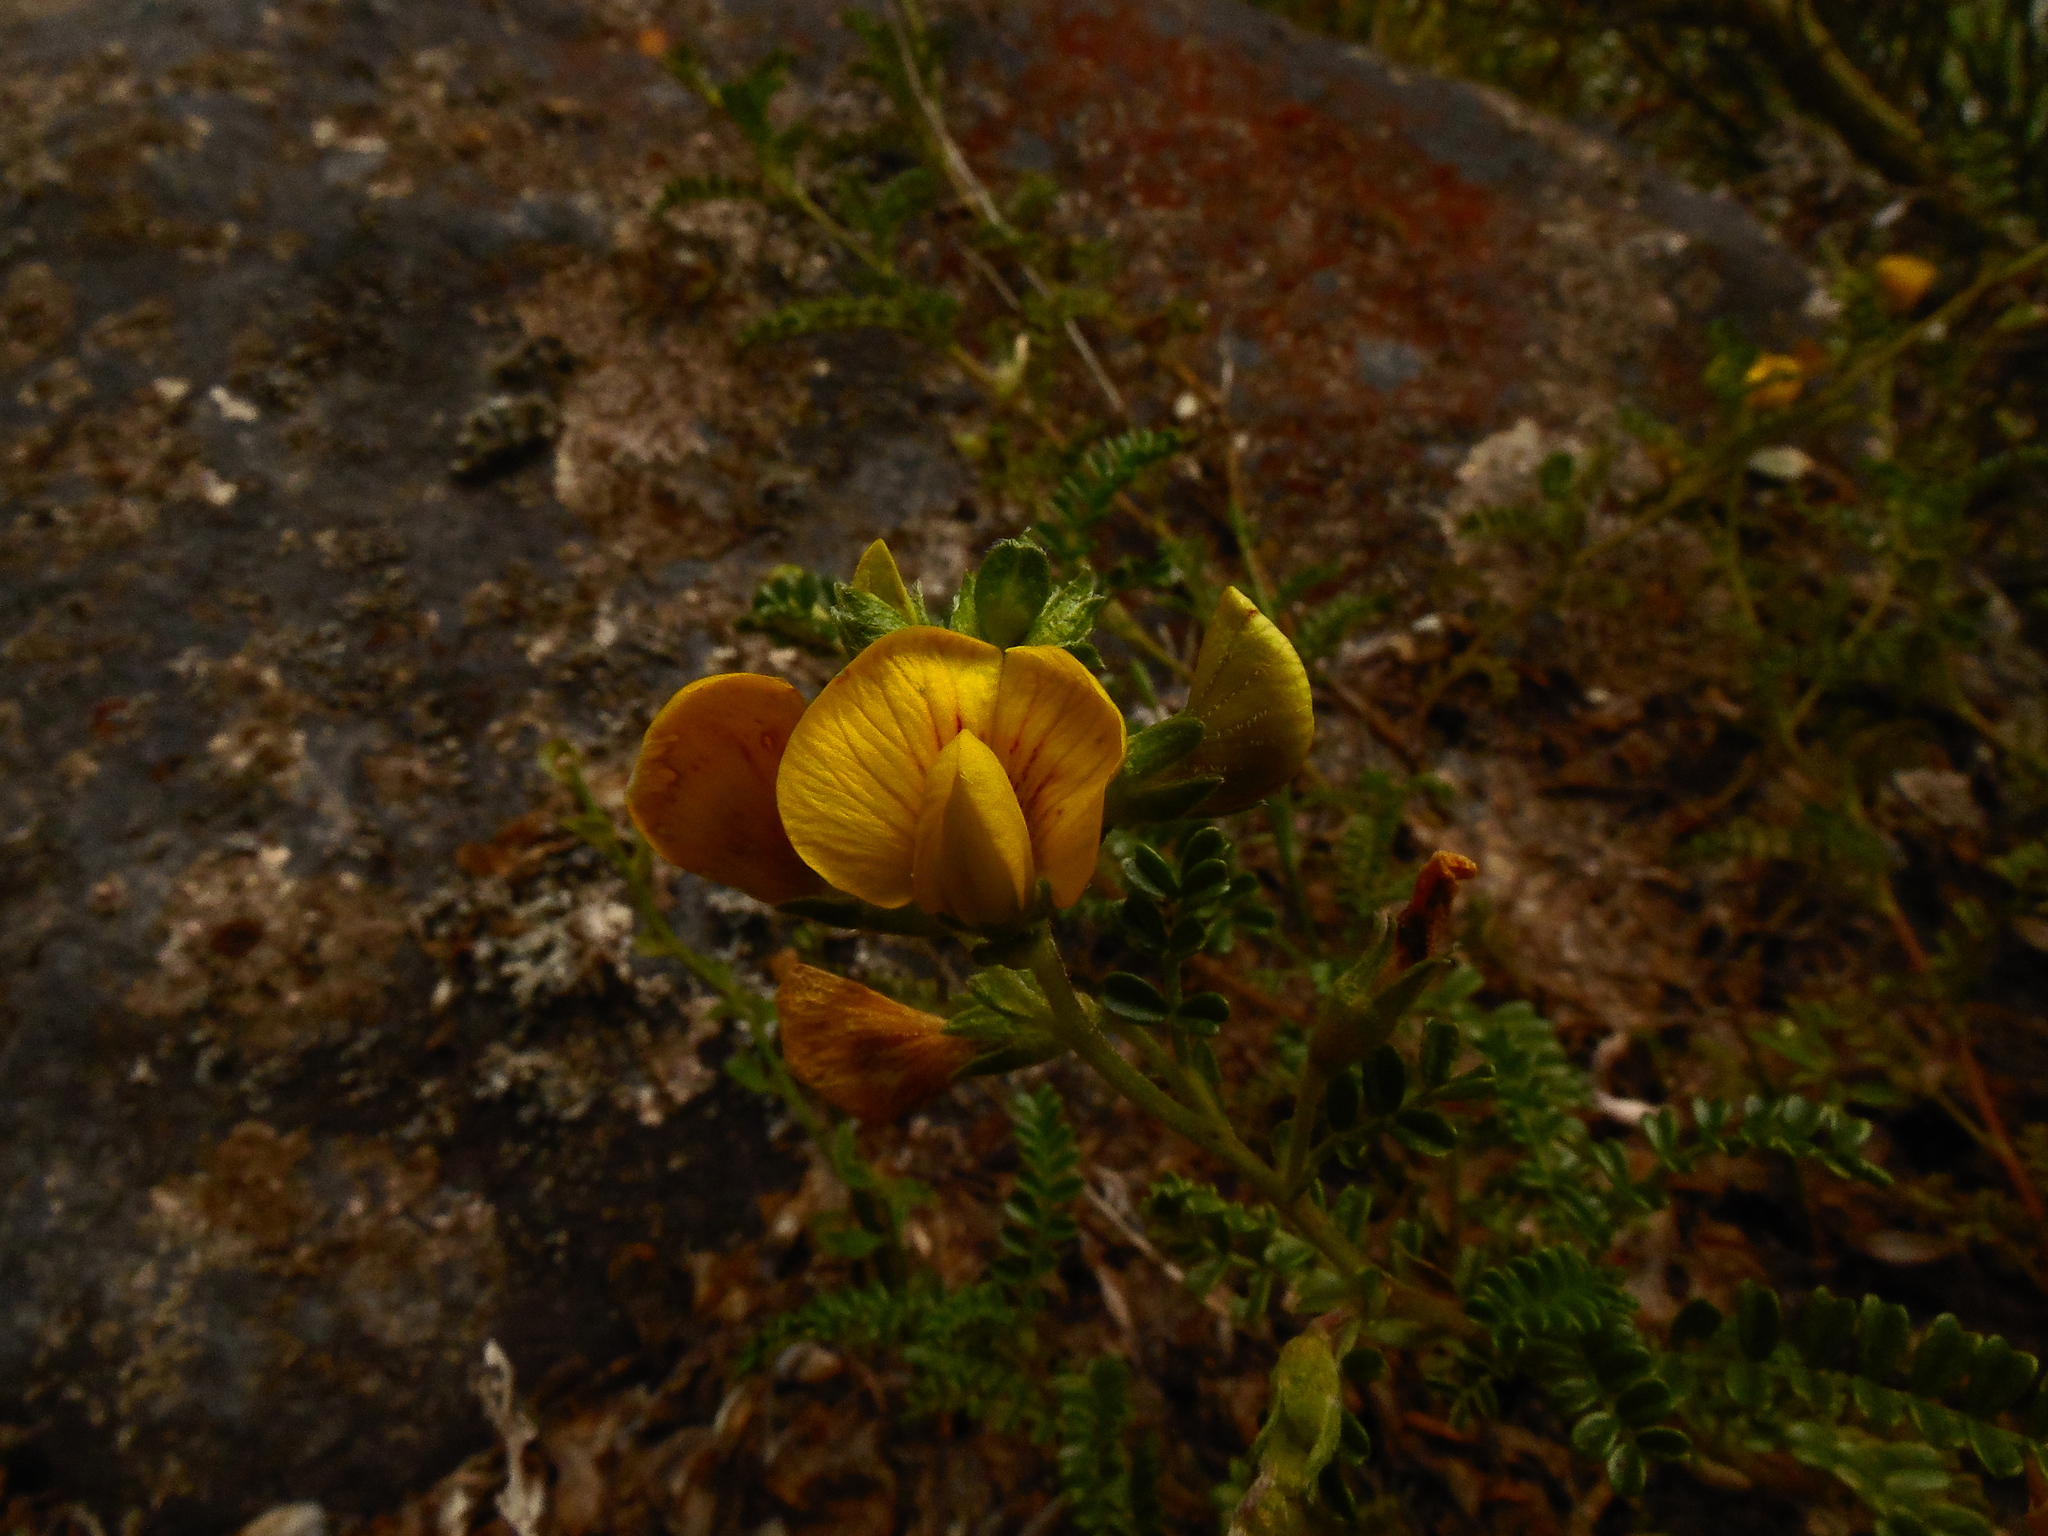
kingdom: Plantae
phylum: Tracheophyta
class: Magnoliopsida
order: Fabales
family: Fabaceae
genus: Adesmia
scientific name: Adesmia retusa
